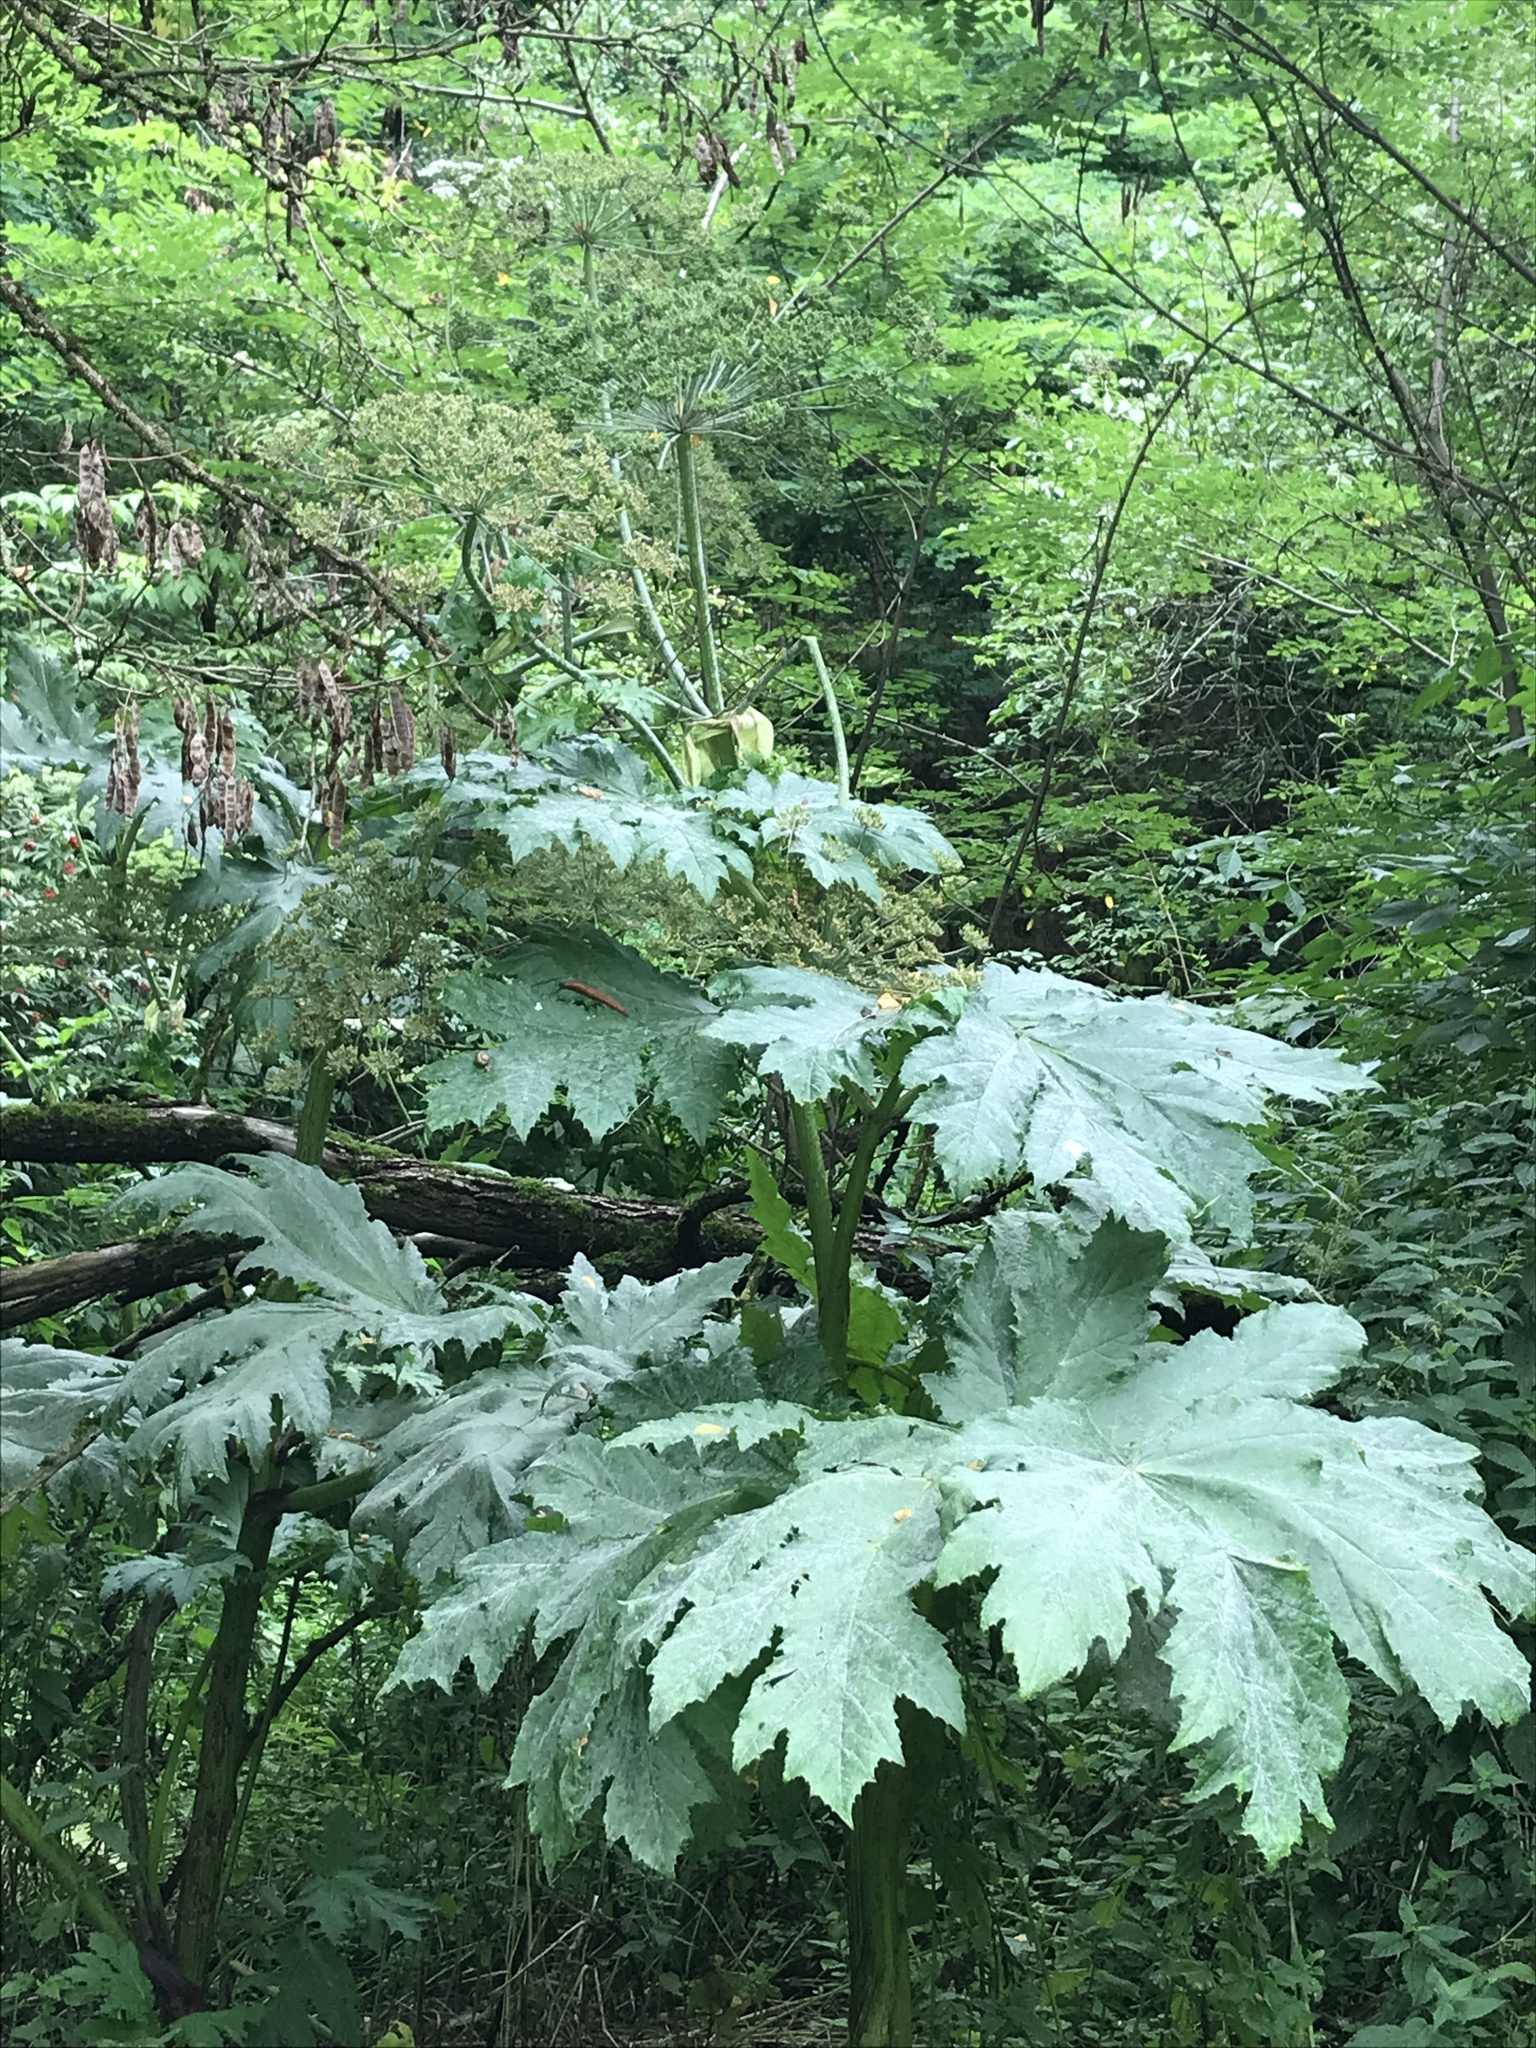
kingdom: Plantae
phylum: Tracheophyta
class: Magnoliopsida
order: Apiales
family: Apiaceae
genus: Heracleum
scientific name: Heracleum mantegazzianum
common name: Giant hogweed
